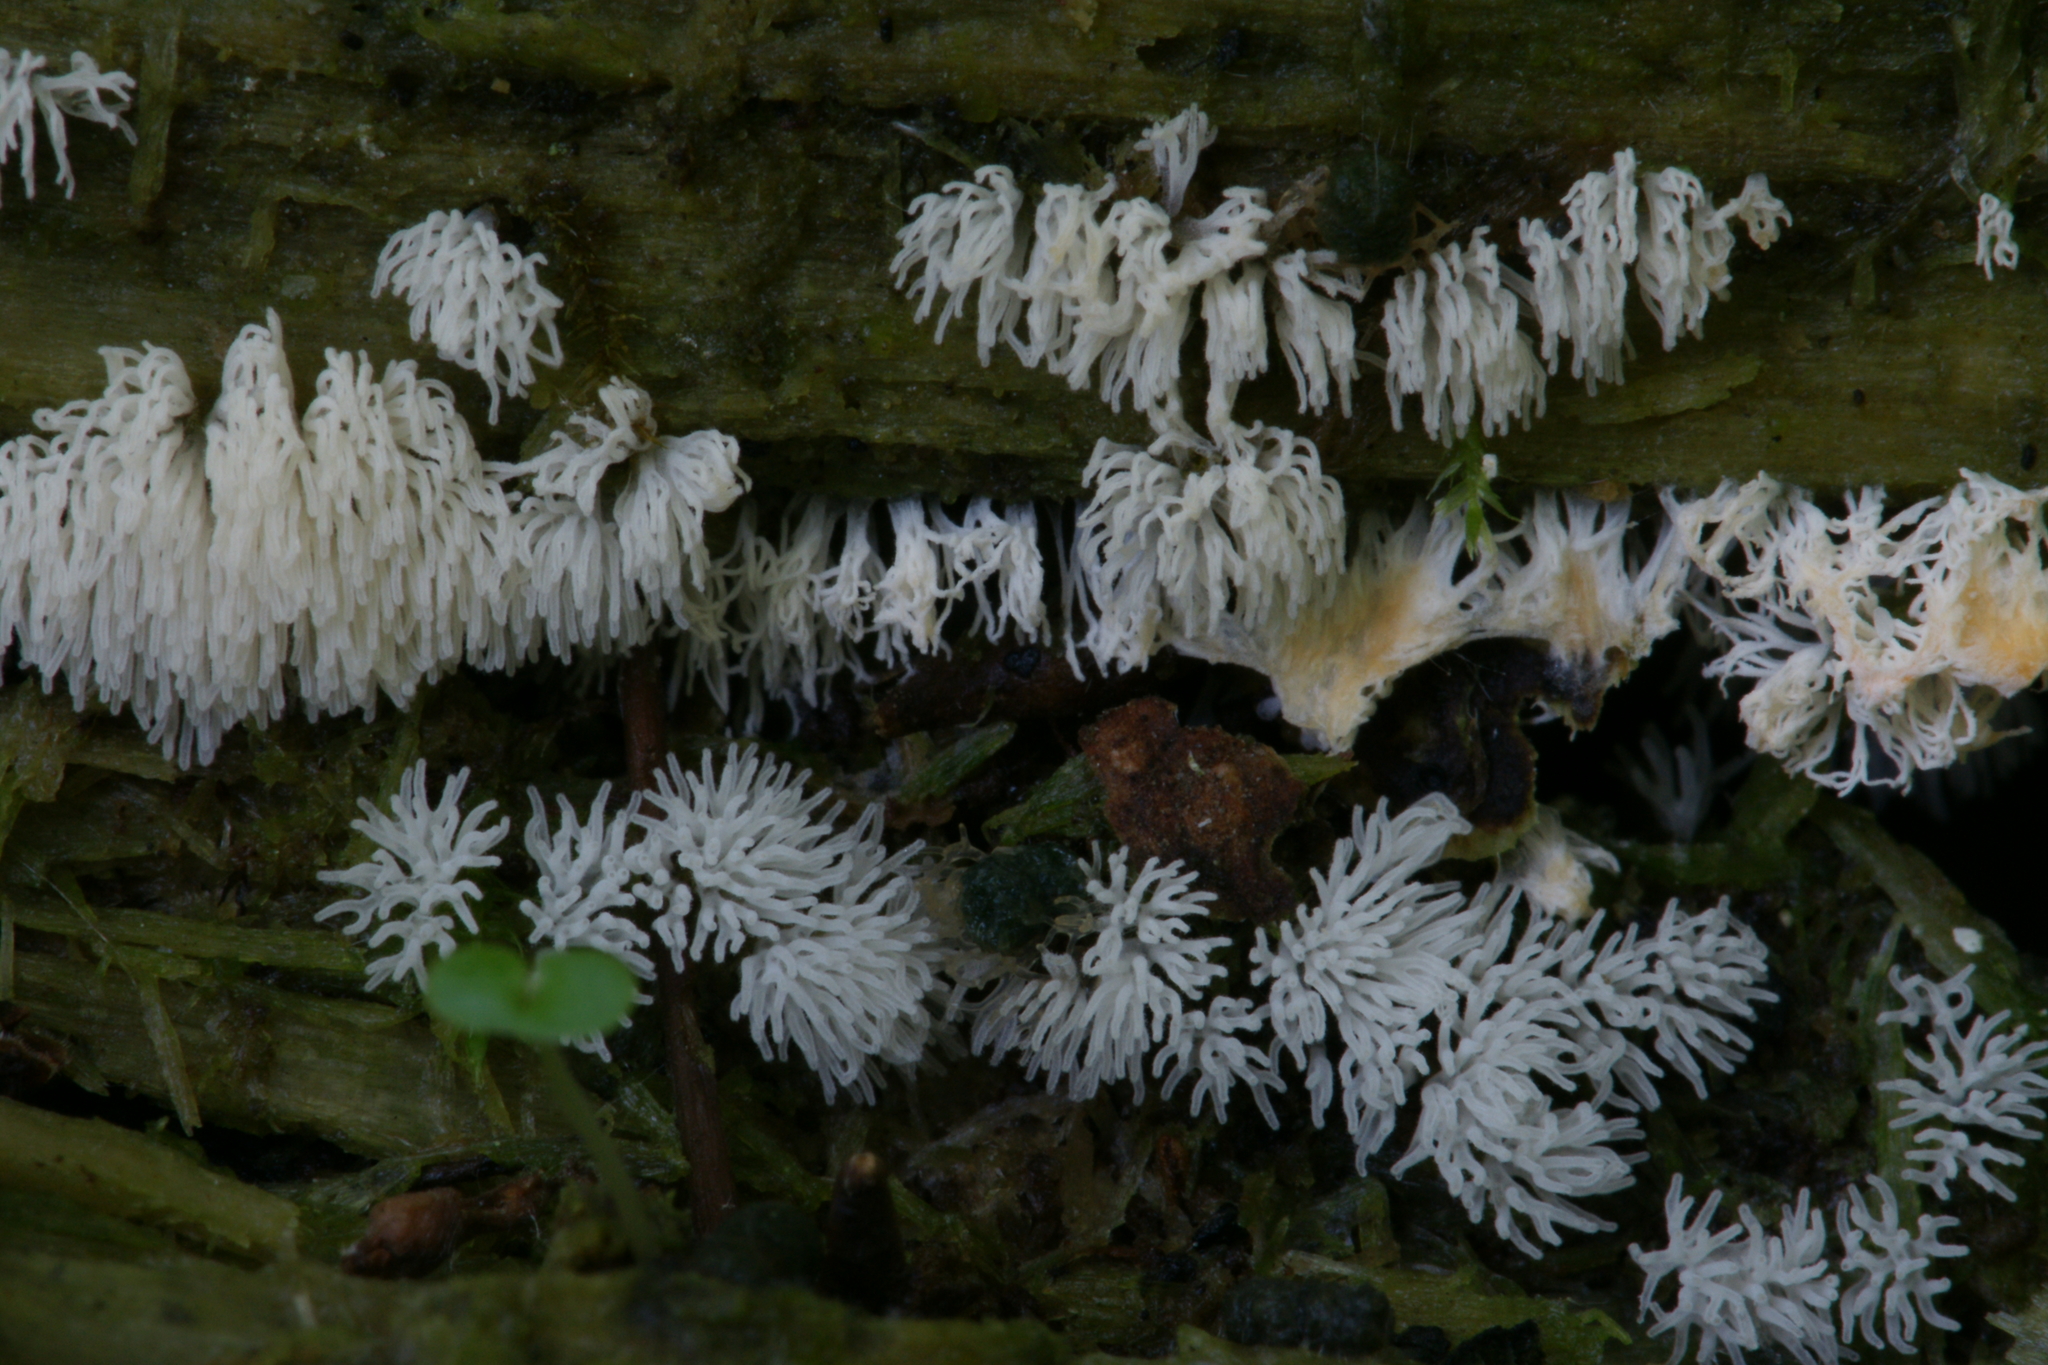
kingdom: Protozoa
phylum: Mycetozoa
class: Protosteliomycetes
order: Ceratiomyxales
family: Ceratiomyxaceae
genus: Ceratiomyxa
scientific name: Ceratiomyxa fruticulosa
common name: Honeycomb coral slime mold
